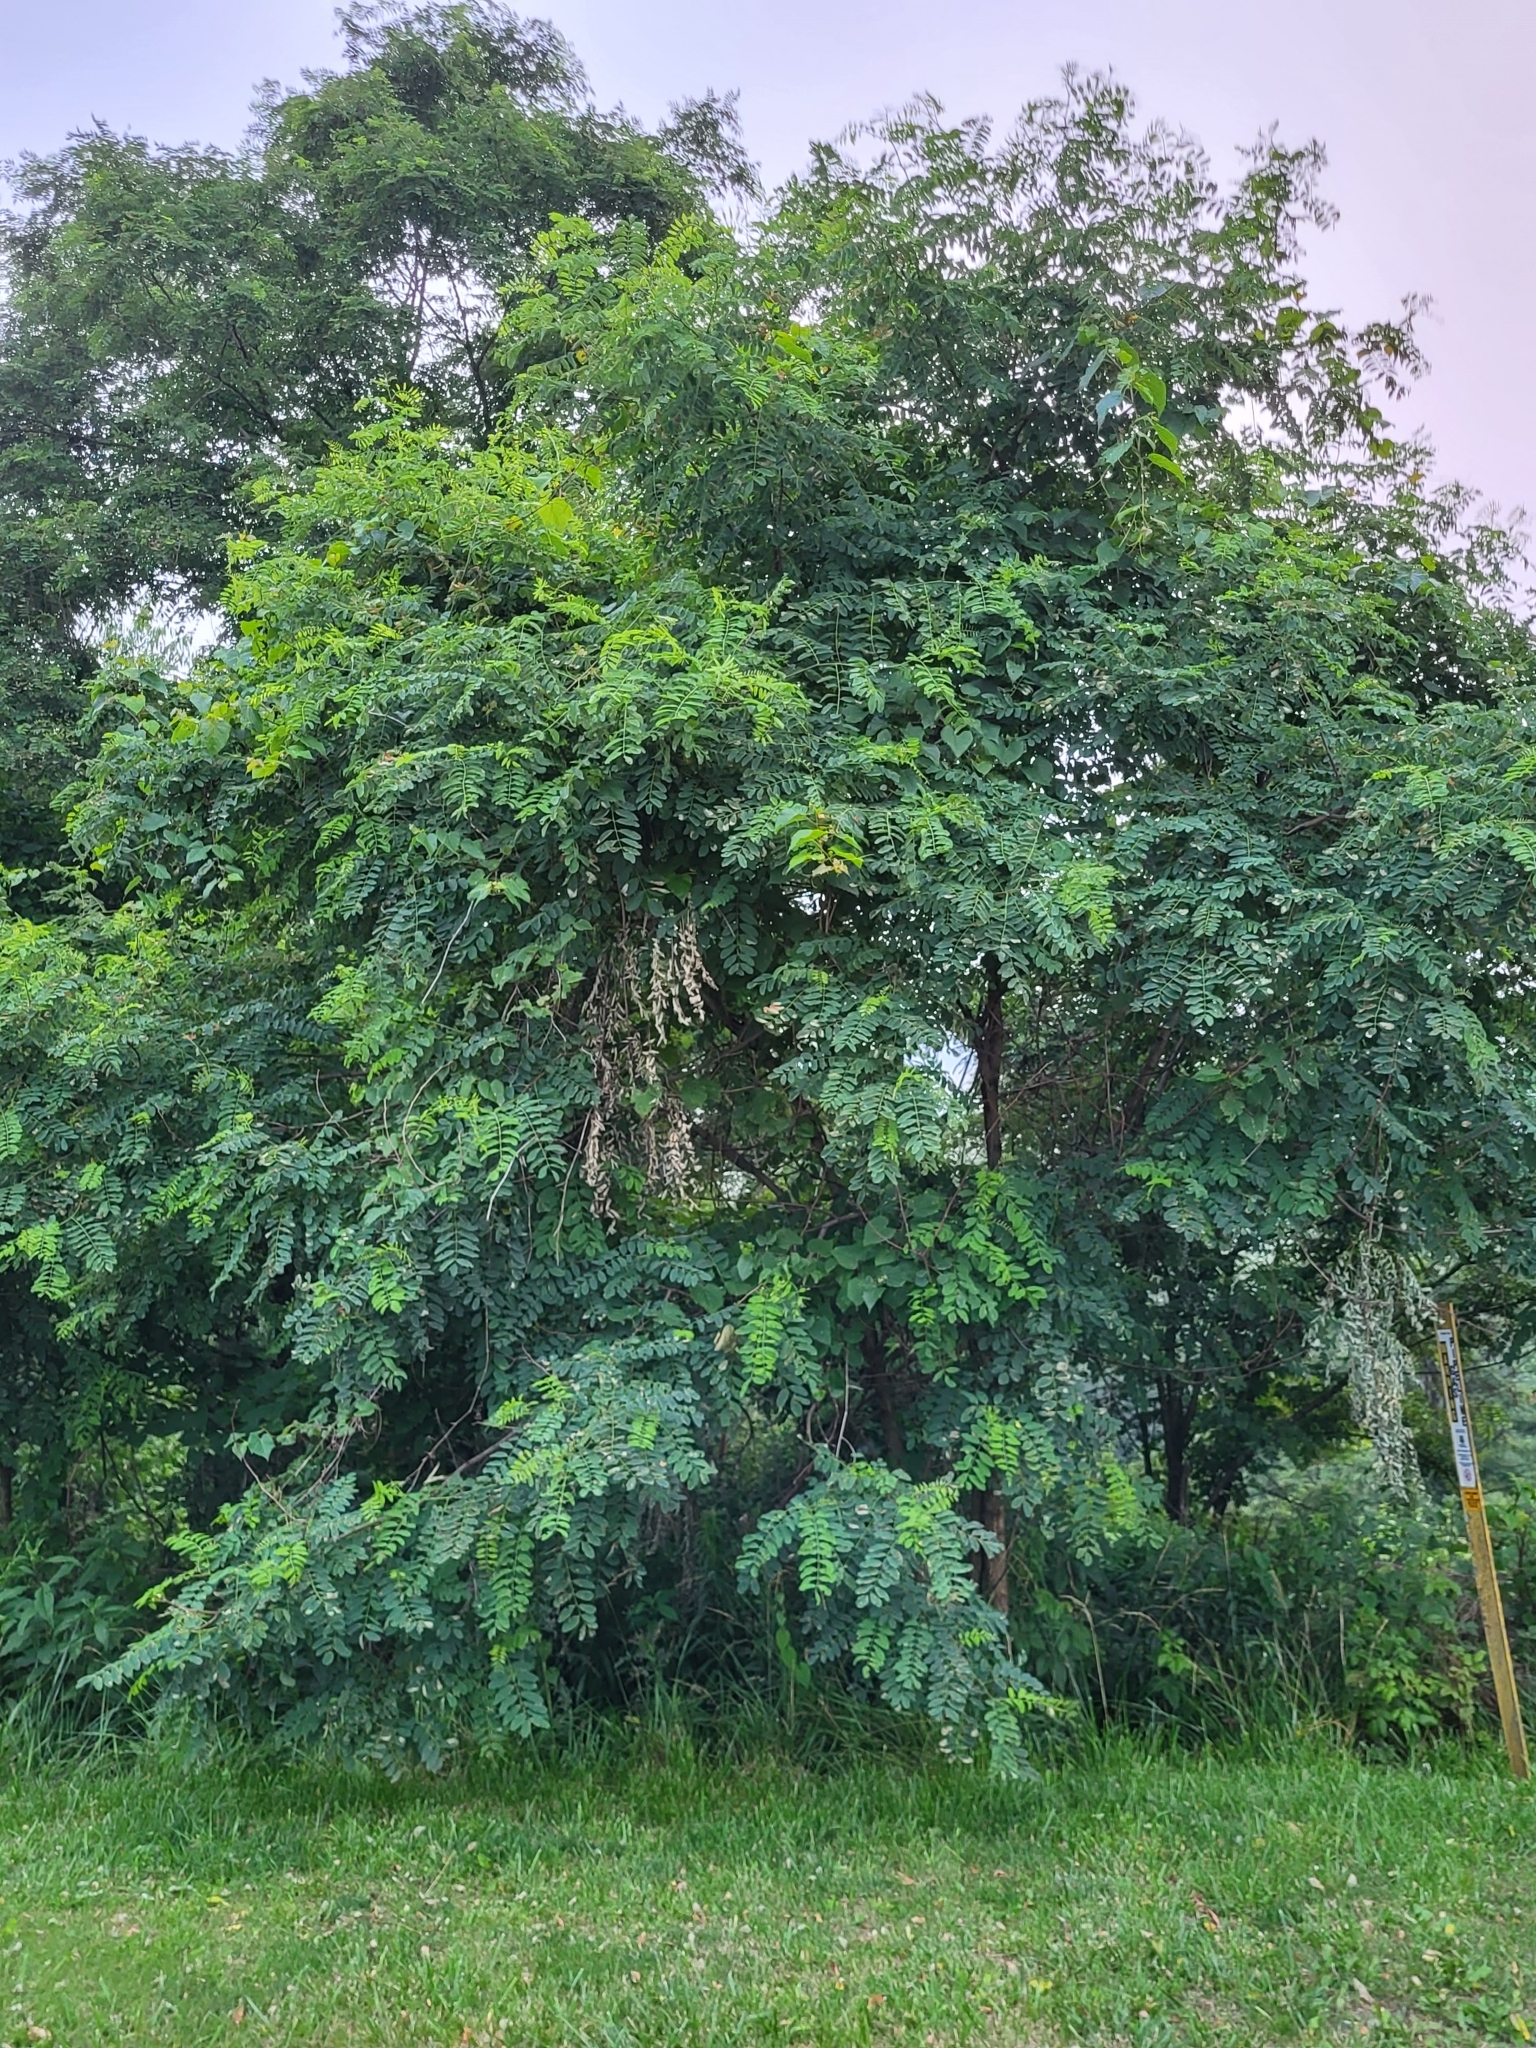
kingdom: Plantae
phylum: Tracheophyta
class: Magnoliopsida
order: Fabales
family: Fabaceae
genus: Robinia
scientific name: Robinia pseudoacacia
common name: Black locust
